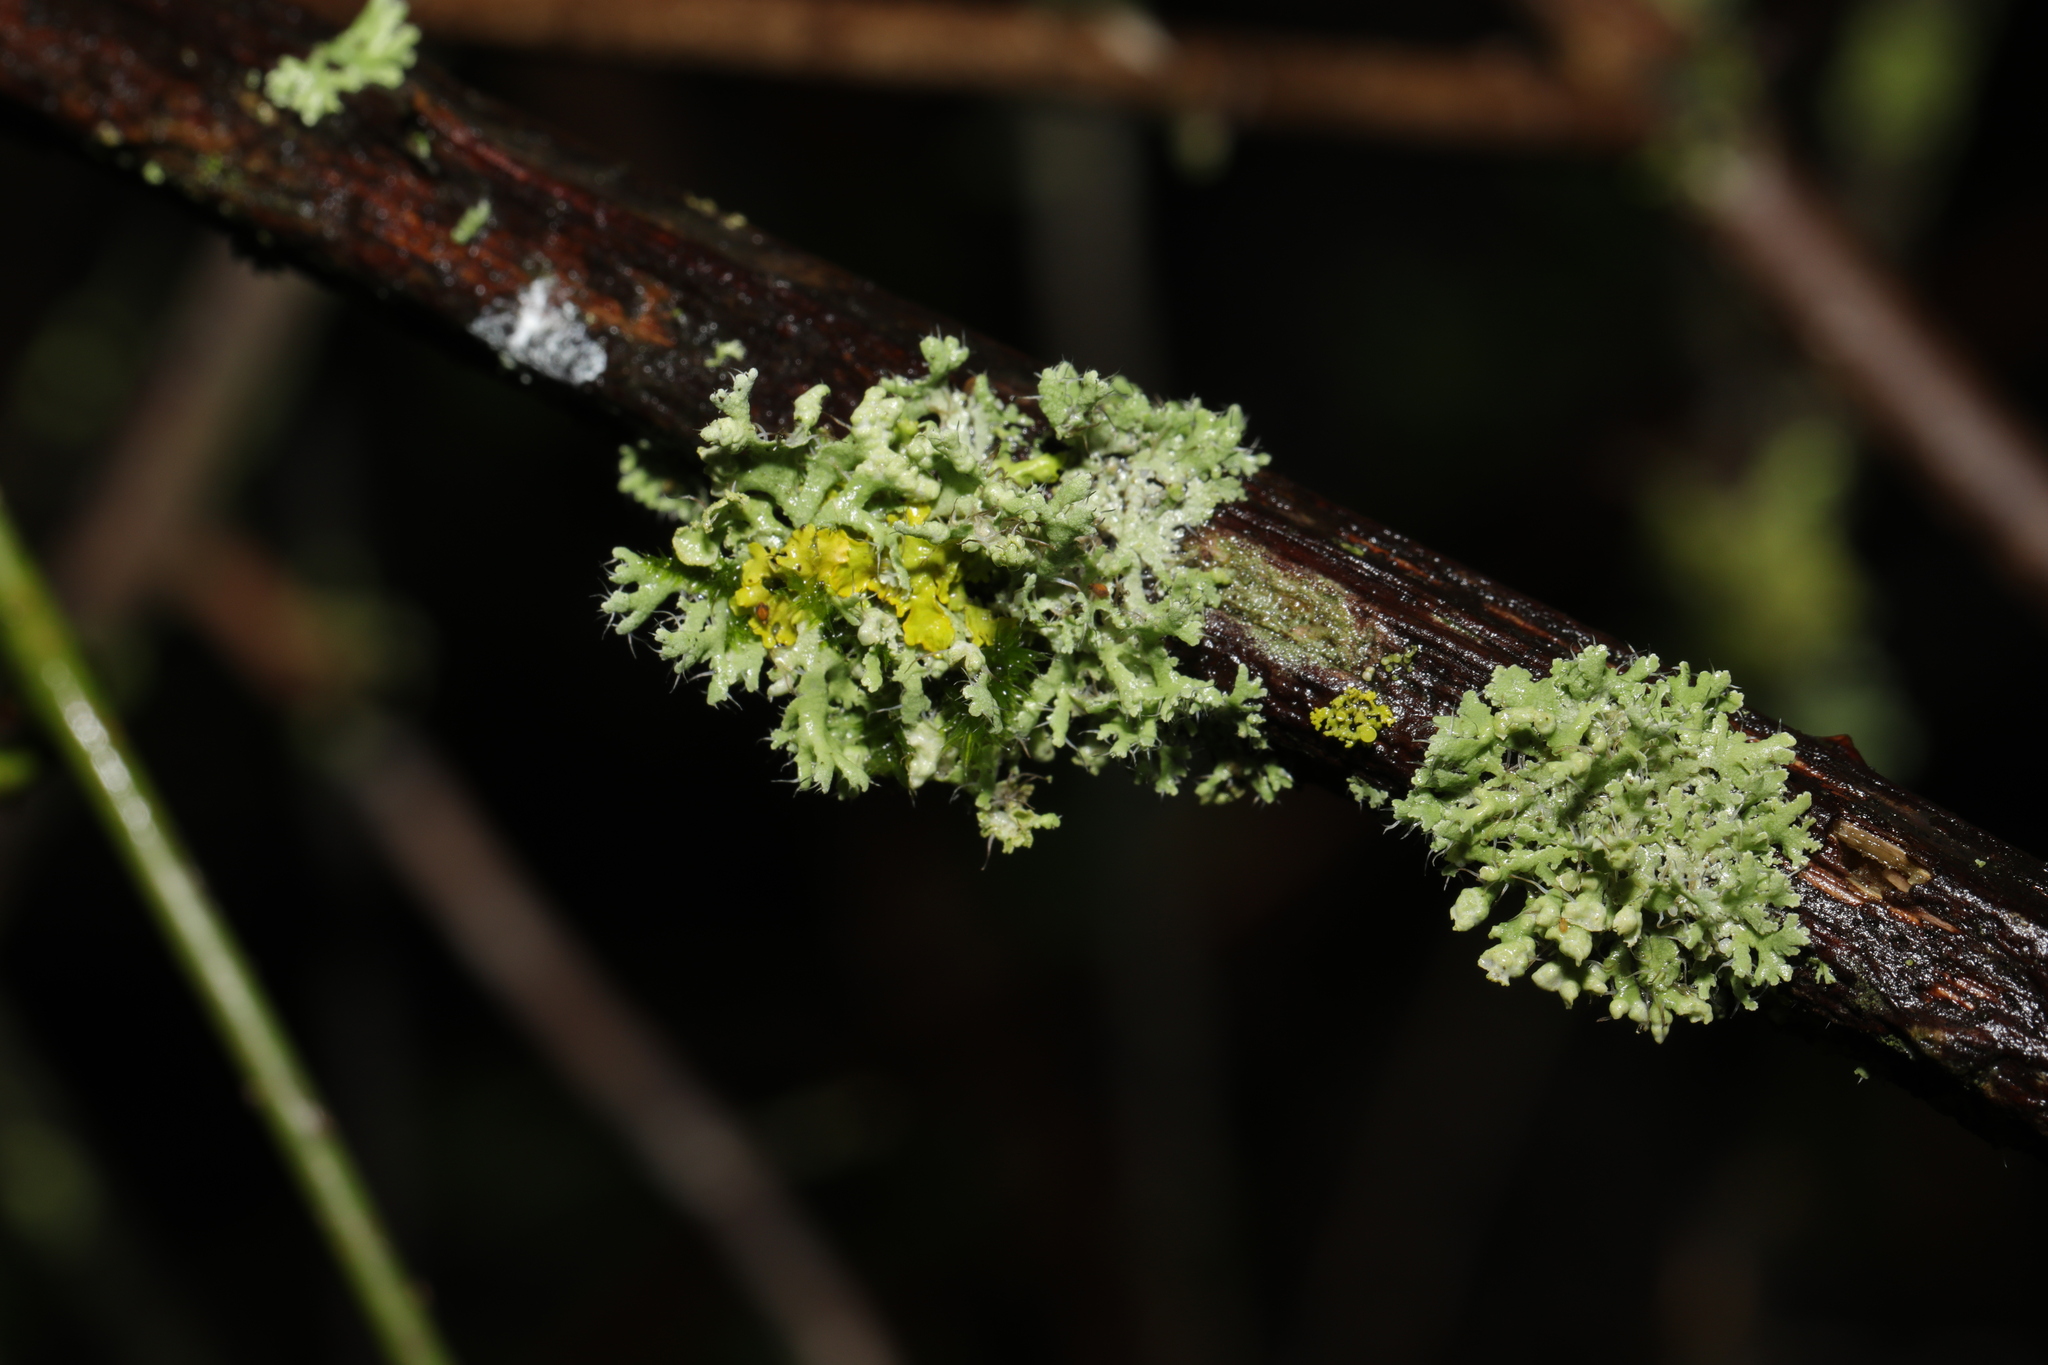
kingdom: Fungi
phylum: Ascomycota
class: Lecanoromycetes
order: Caliciales
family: Physciaceae
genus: Physcia
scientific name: Physcia adscendens
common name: Hooded rosette lichen
